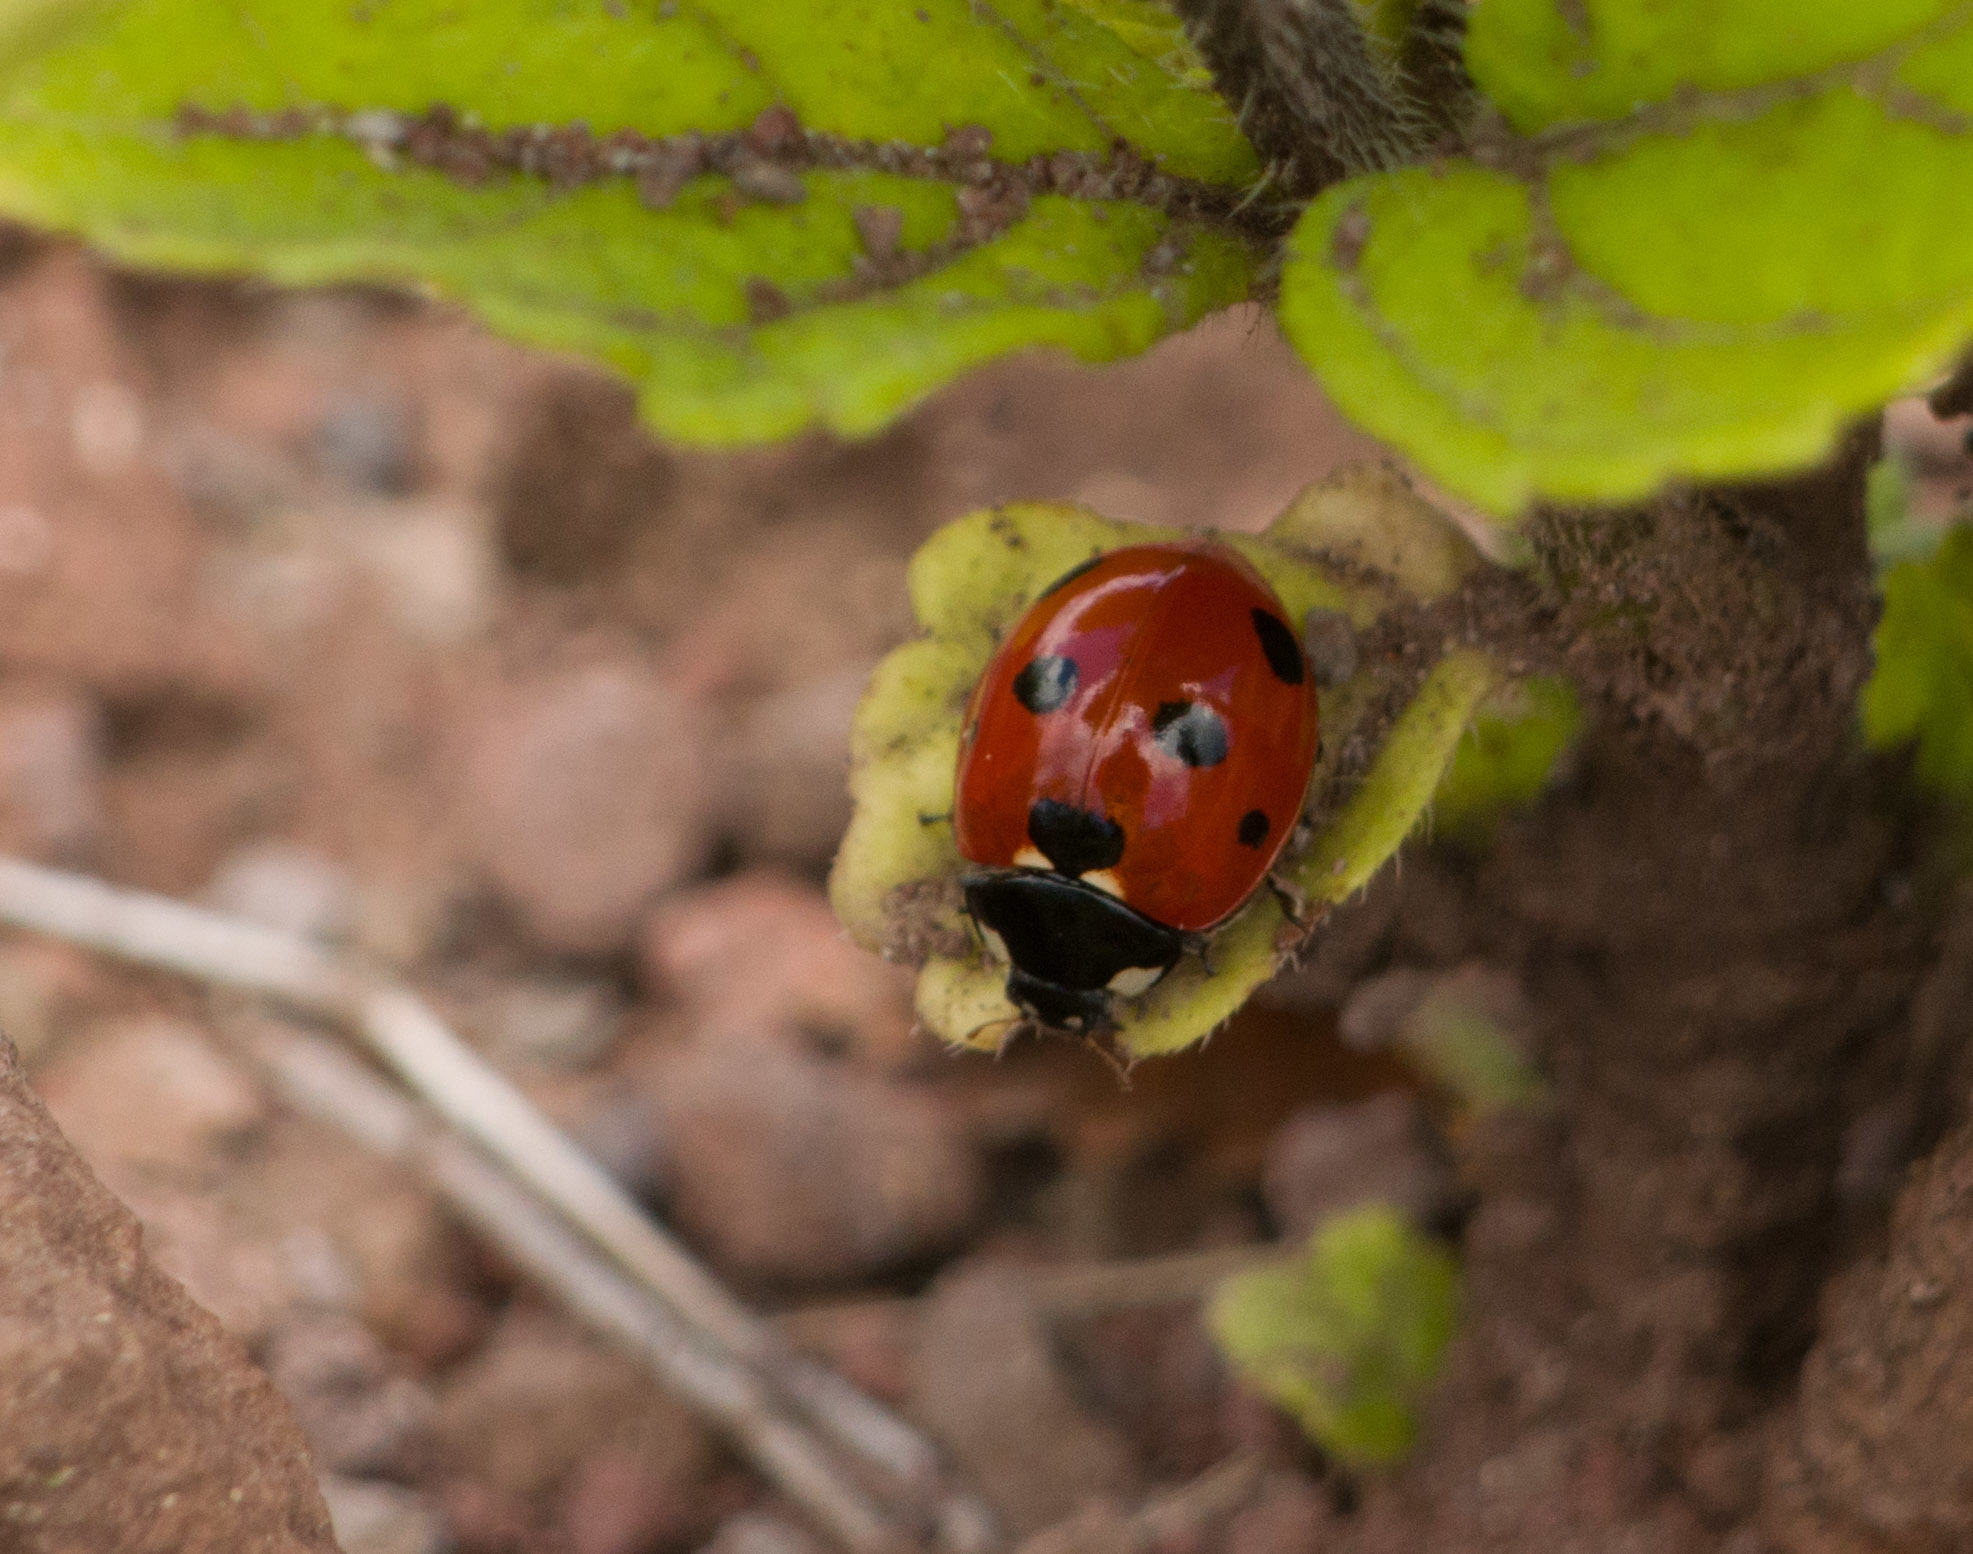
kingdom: Animalia
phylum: Arthropoda
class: Insecta
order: Coleoptera
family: Coccinellidae
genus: Coccinella
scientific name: Coccinella septempunctata
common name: Sevenspotted lady beetle
